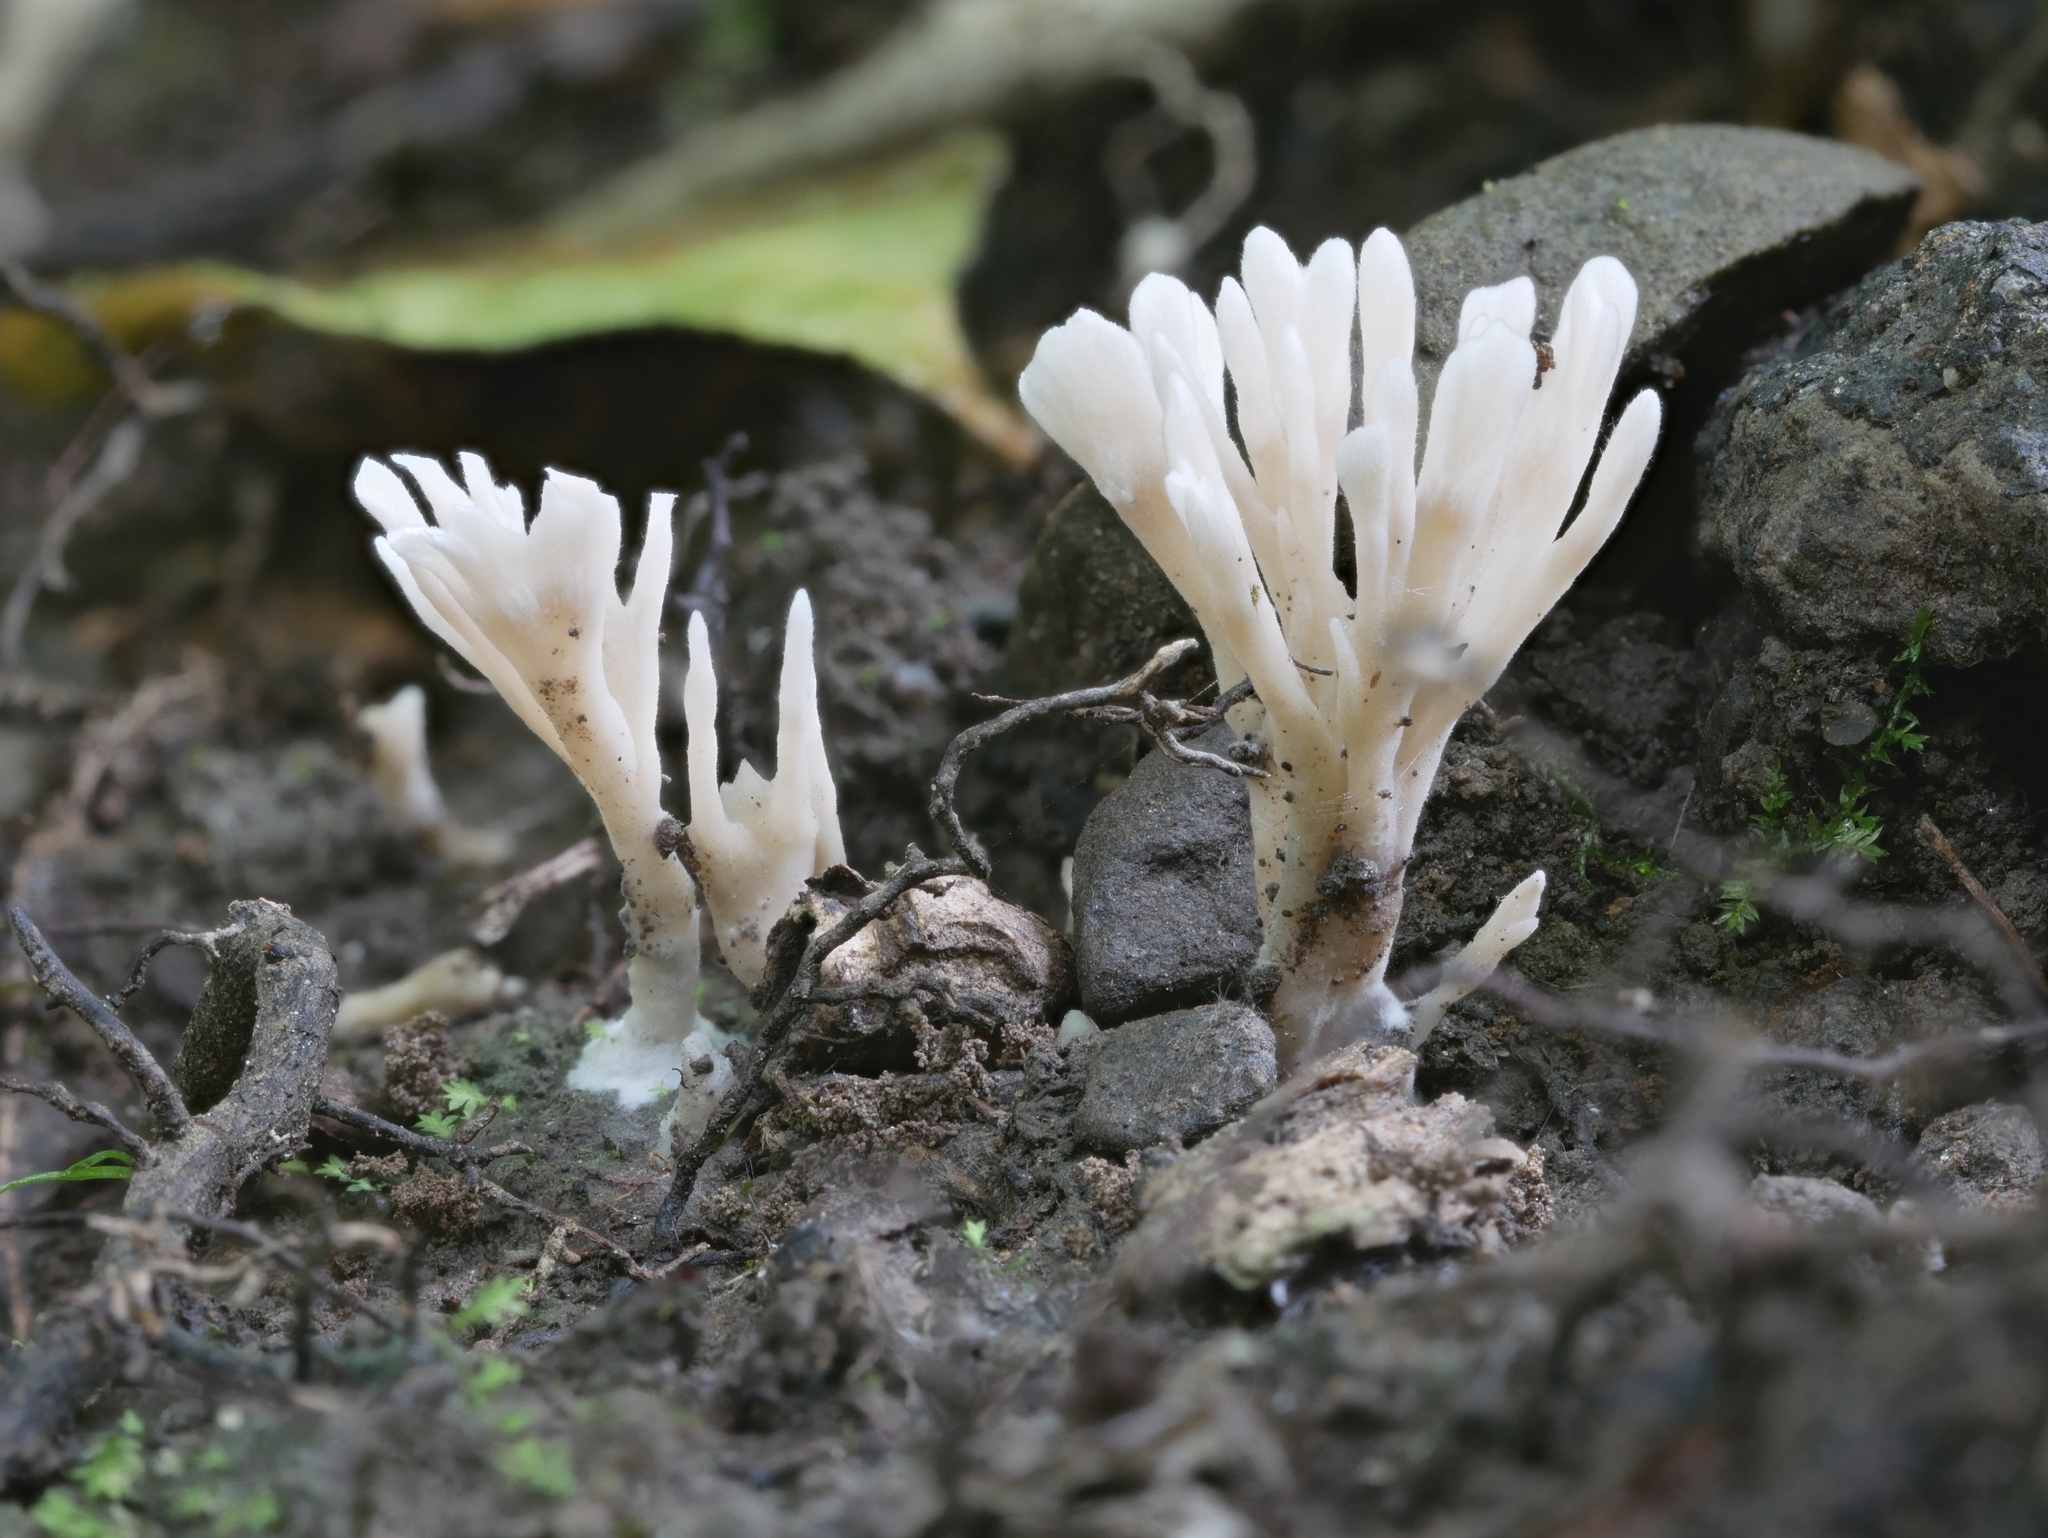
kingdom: Fungi
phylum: Basidiomycota
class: Agaricomycetes
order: Tremellodendropsidales
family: Tremellodendropsidaceae
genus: Tremellodendropsis
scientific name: Tremellodendropsis tuberosa
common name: Ashen coral
